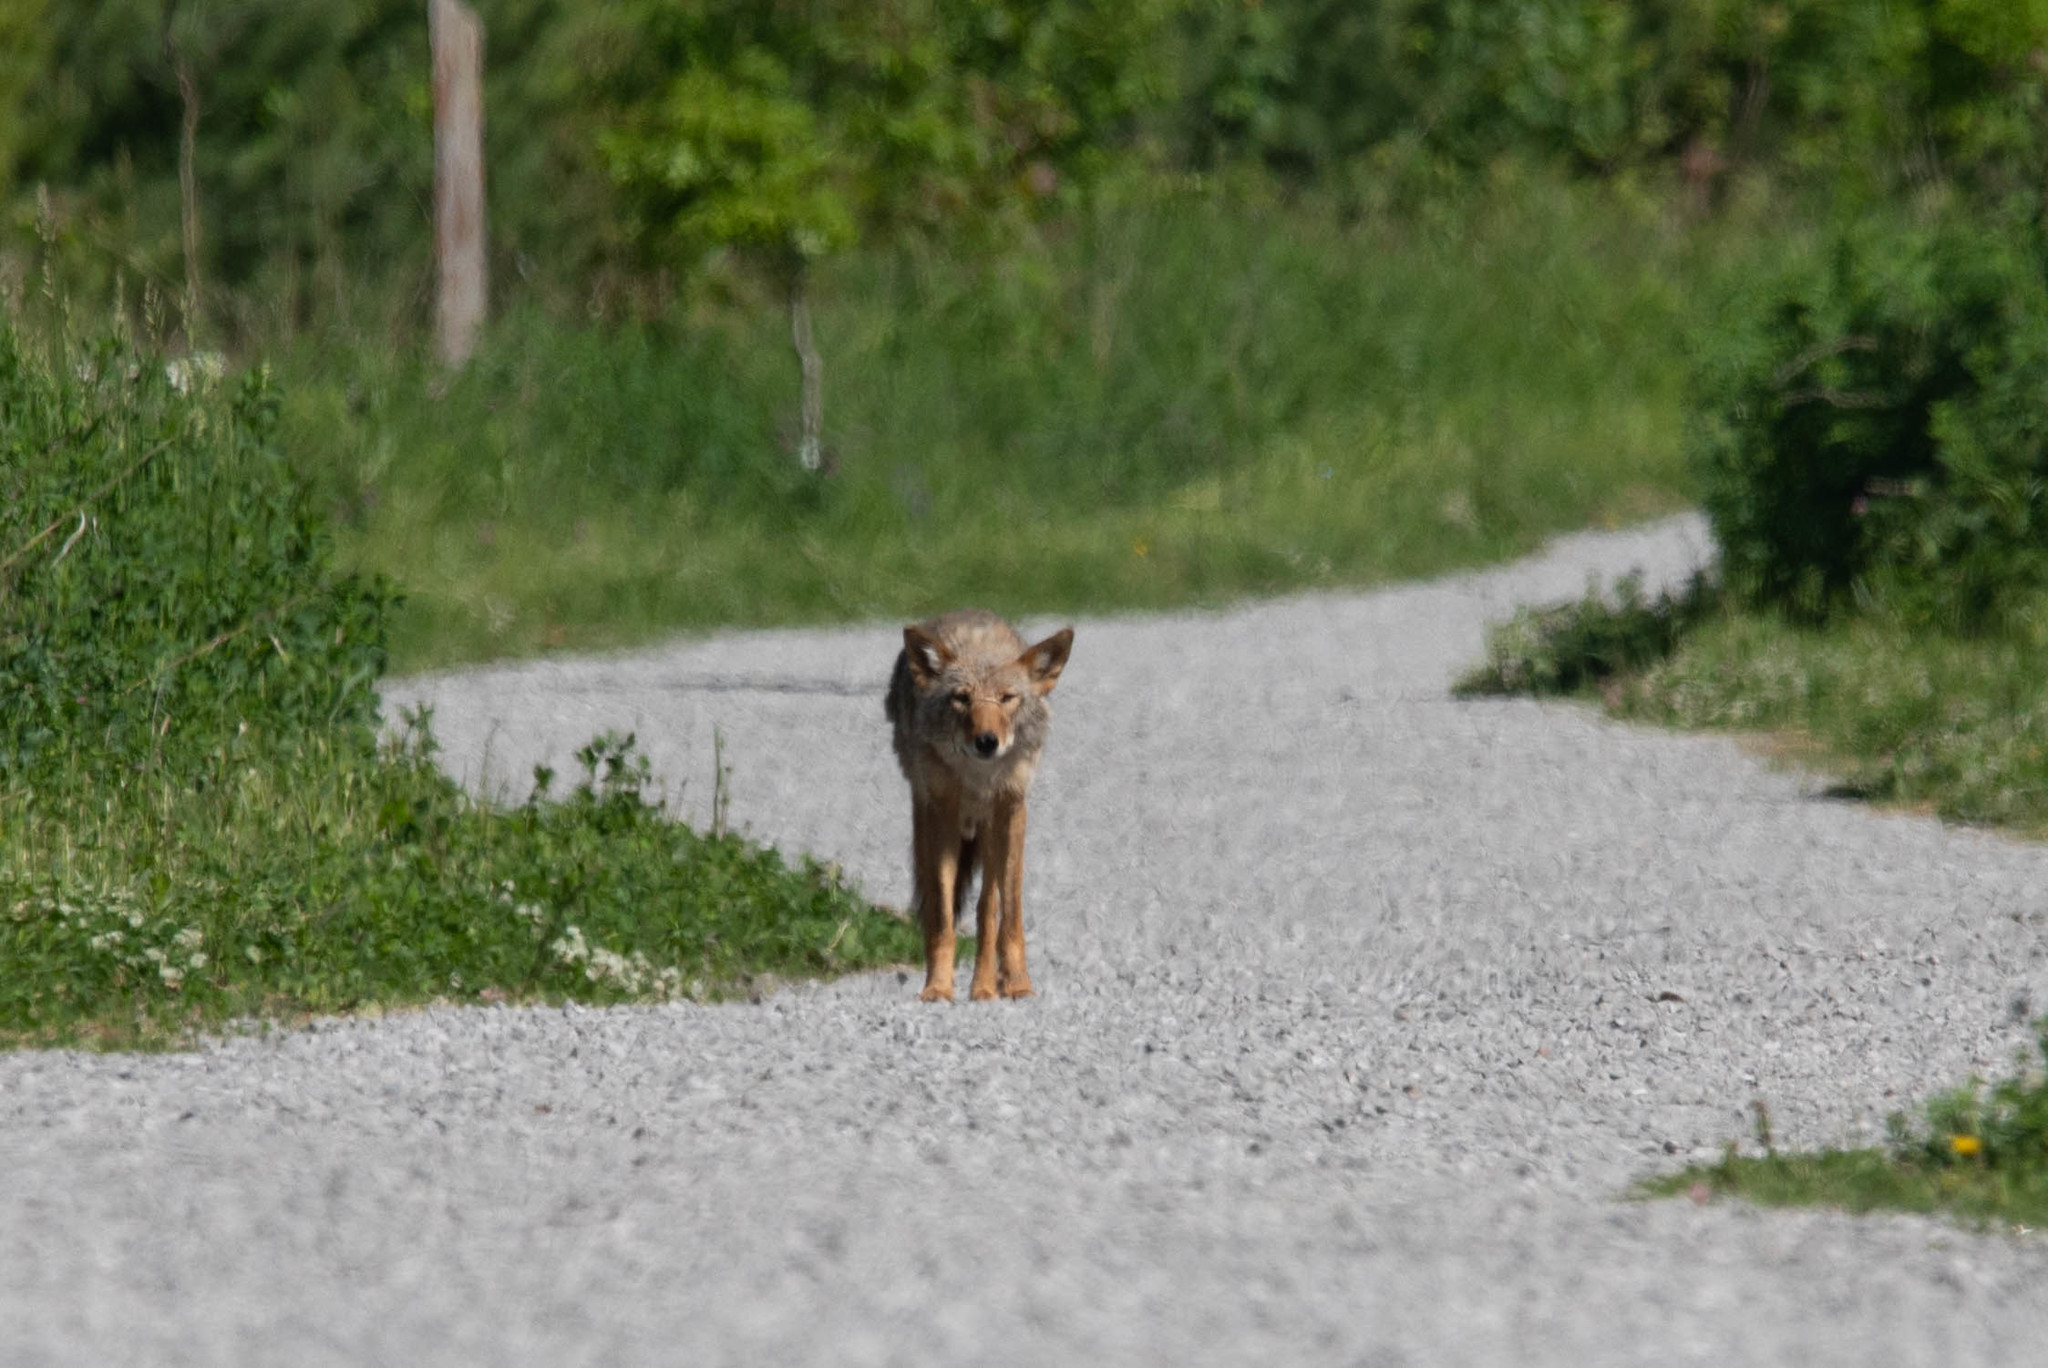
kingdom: Animalia
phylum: Chordata
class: Mammalia
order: Carnivora
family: Canidae
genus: Canis
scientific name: Canis latrans
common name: Coyote
